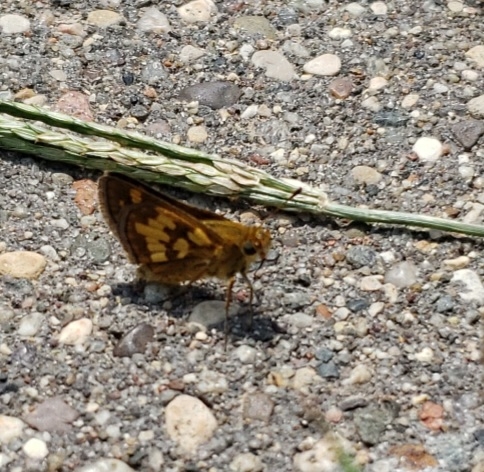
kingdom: Animalia
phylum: Arthropoda
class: Insecta
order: Lepidoptera
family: Hesperiidae
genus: Polites
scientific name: Polites coras
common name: Peck's skipper
